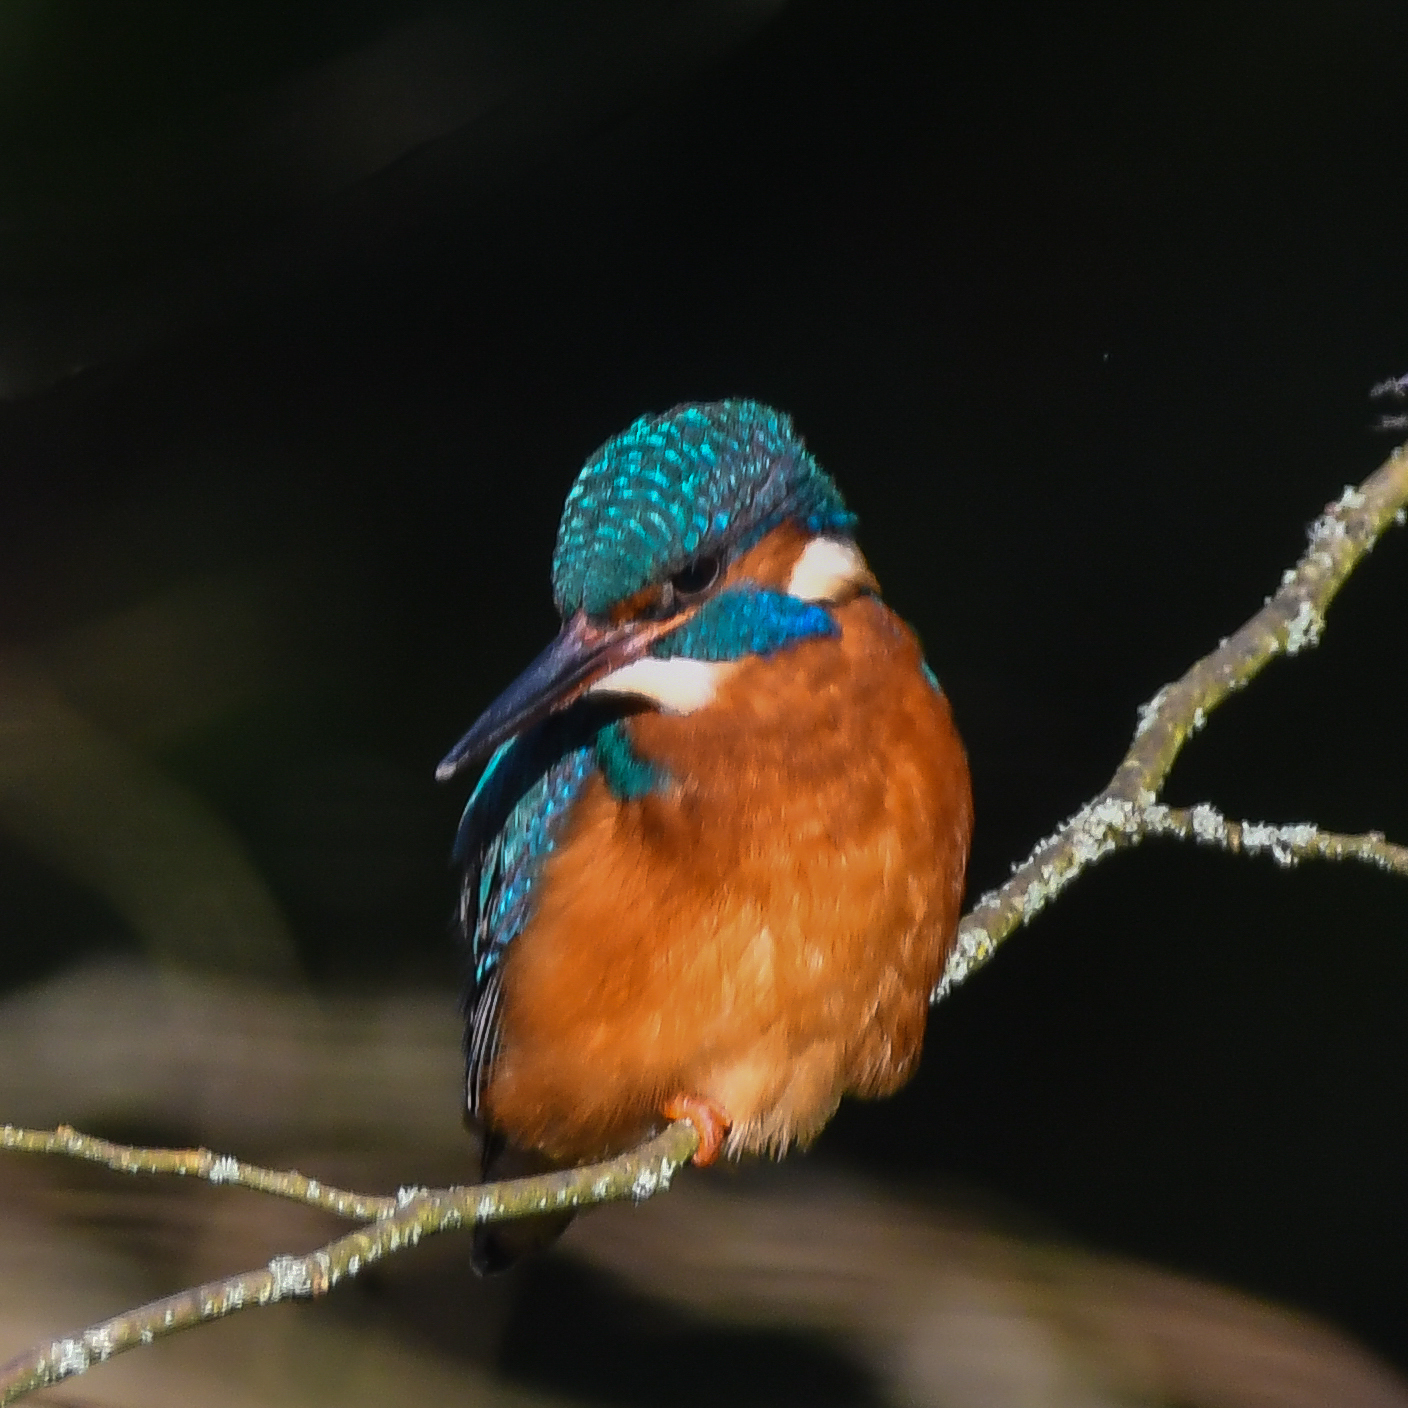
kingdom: Animalia
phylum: Chordata
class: Aves
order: Coraciiformes
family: Alcedinidae
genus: Alcedo
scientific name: Alcedo atthis
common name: Common kingfisher
